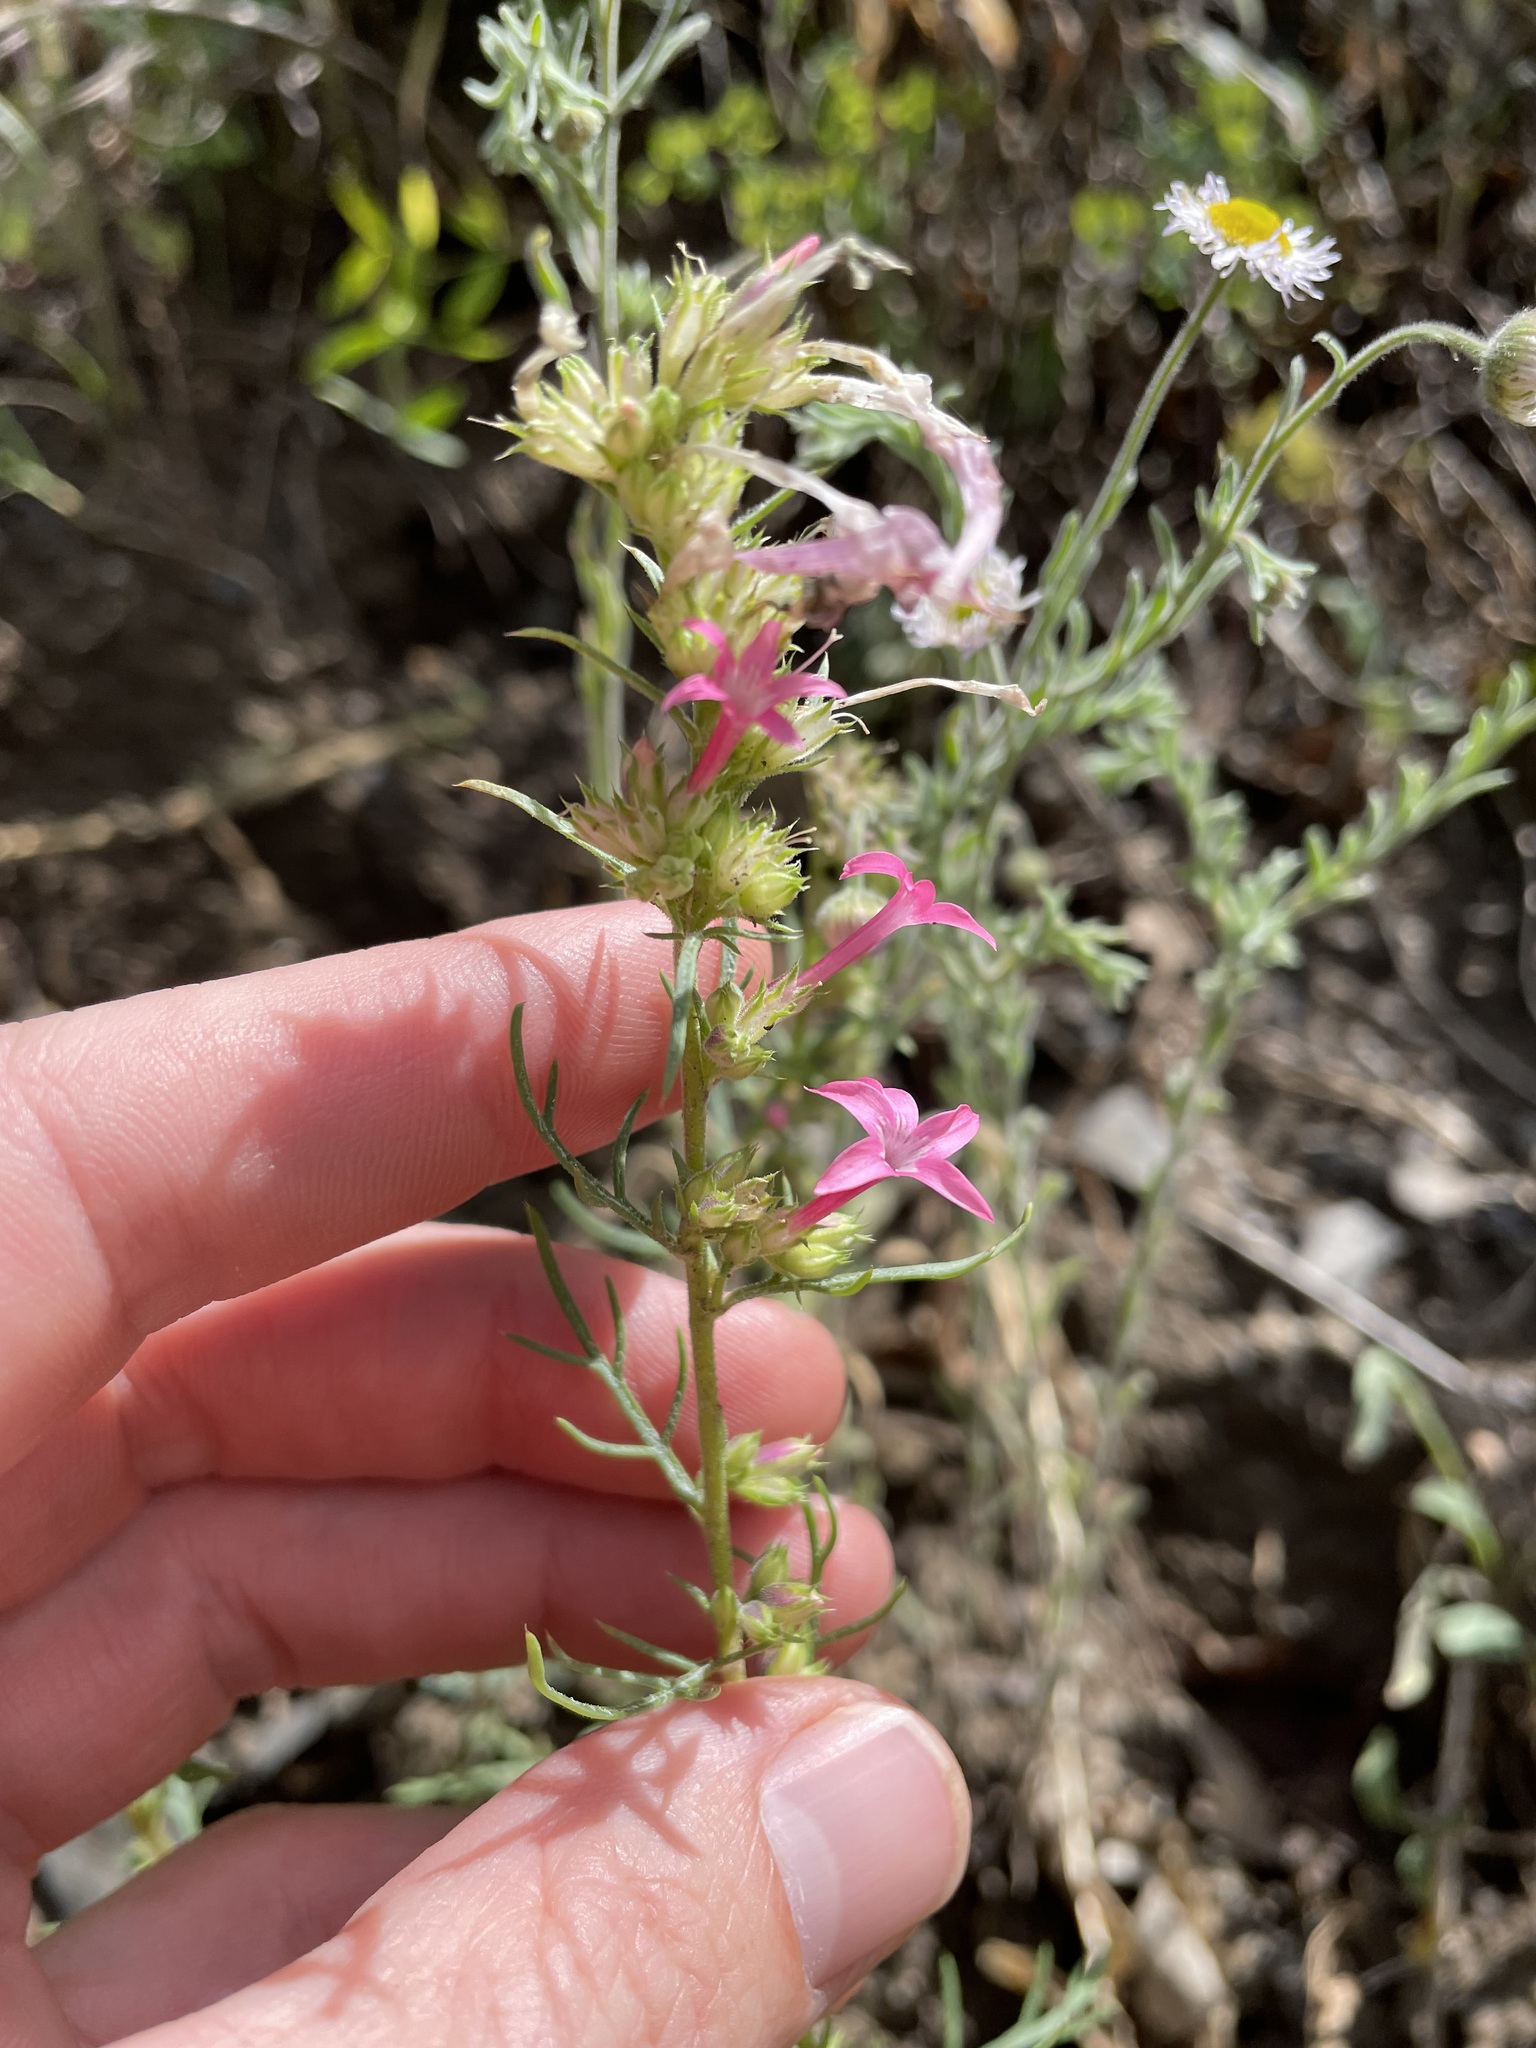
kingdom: Plantae
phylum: Tracheophyta
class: Magnoliopsida
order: Ericales
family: Polemoniaceae
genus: Ipomopsis
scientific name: Ipomopsis sancti-spiritus
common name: Holy ghost ipomopsis
